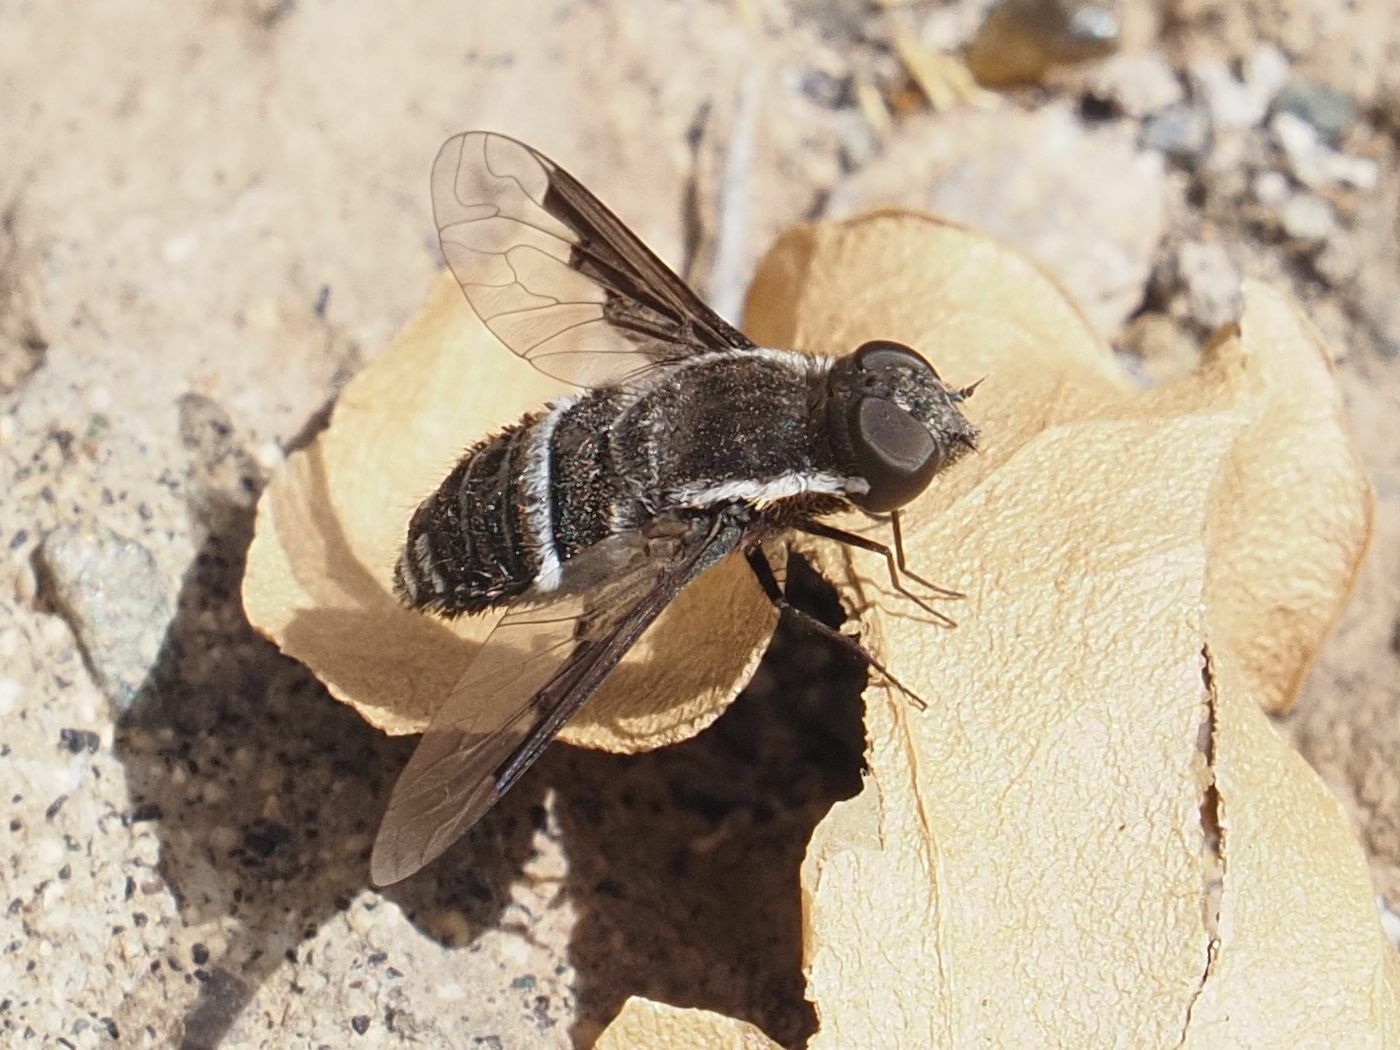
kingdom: Animalia
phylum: Arthropoda
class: Insecta
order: Diptera
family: Bombyliidae
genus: Exhyalanthrax
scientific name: Exhyalanthrax canarionae
